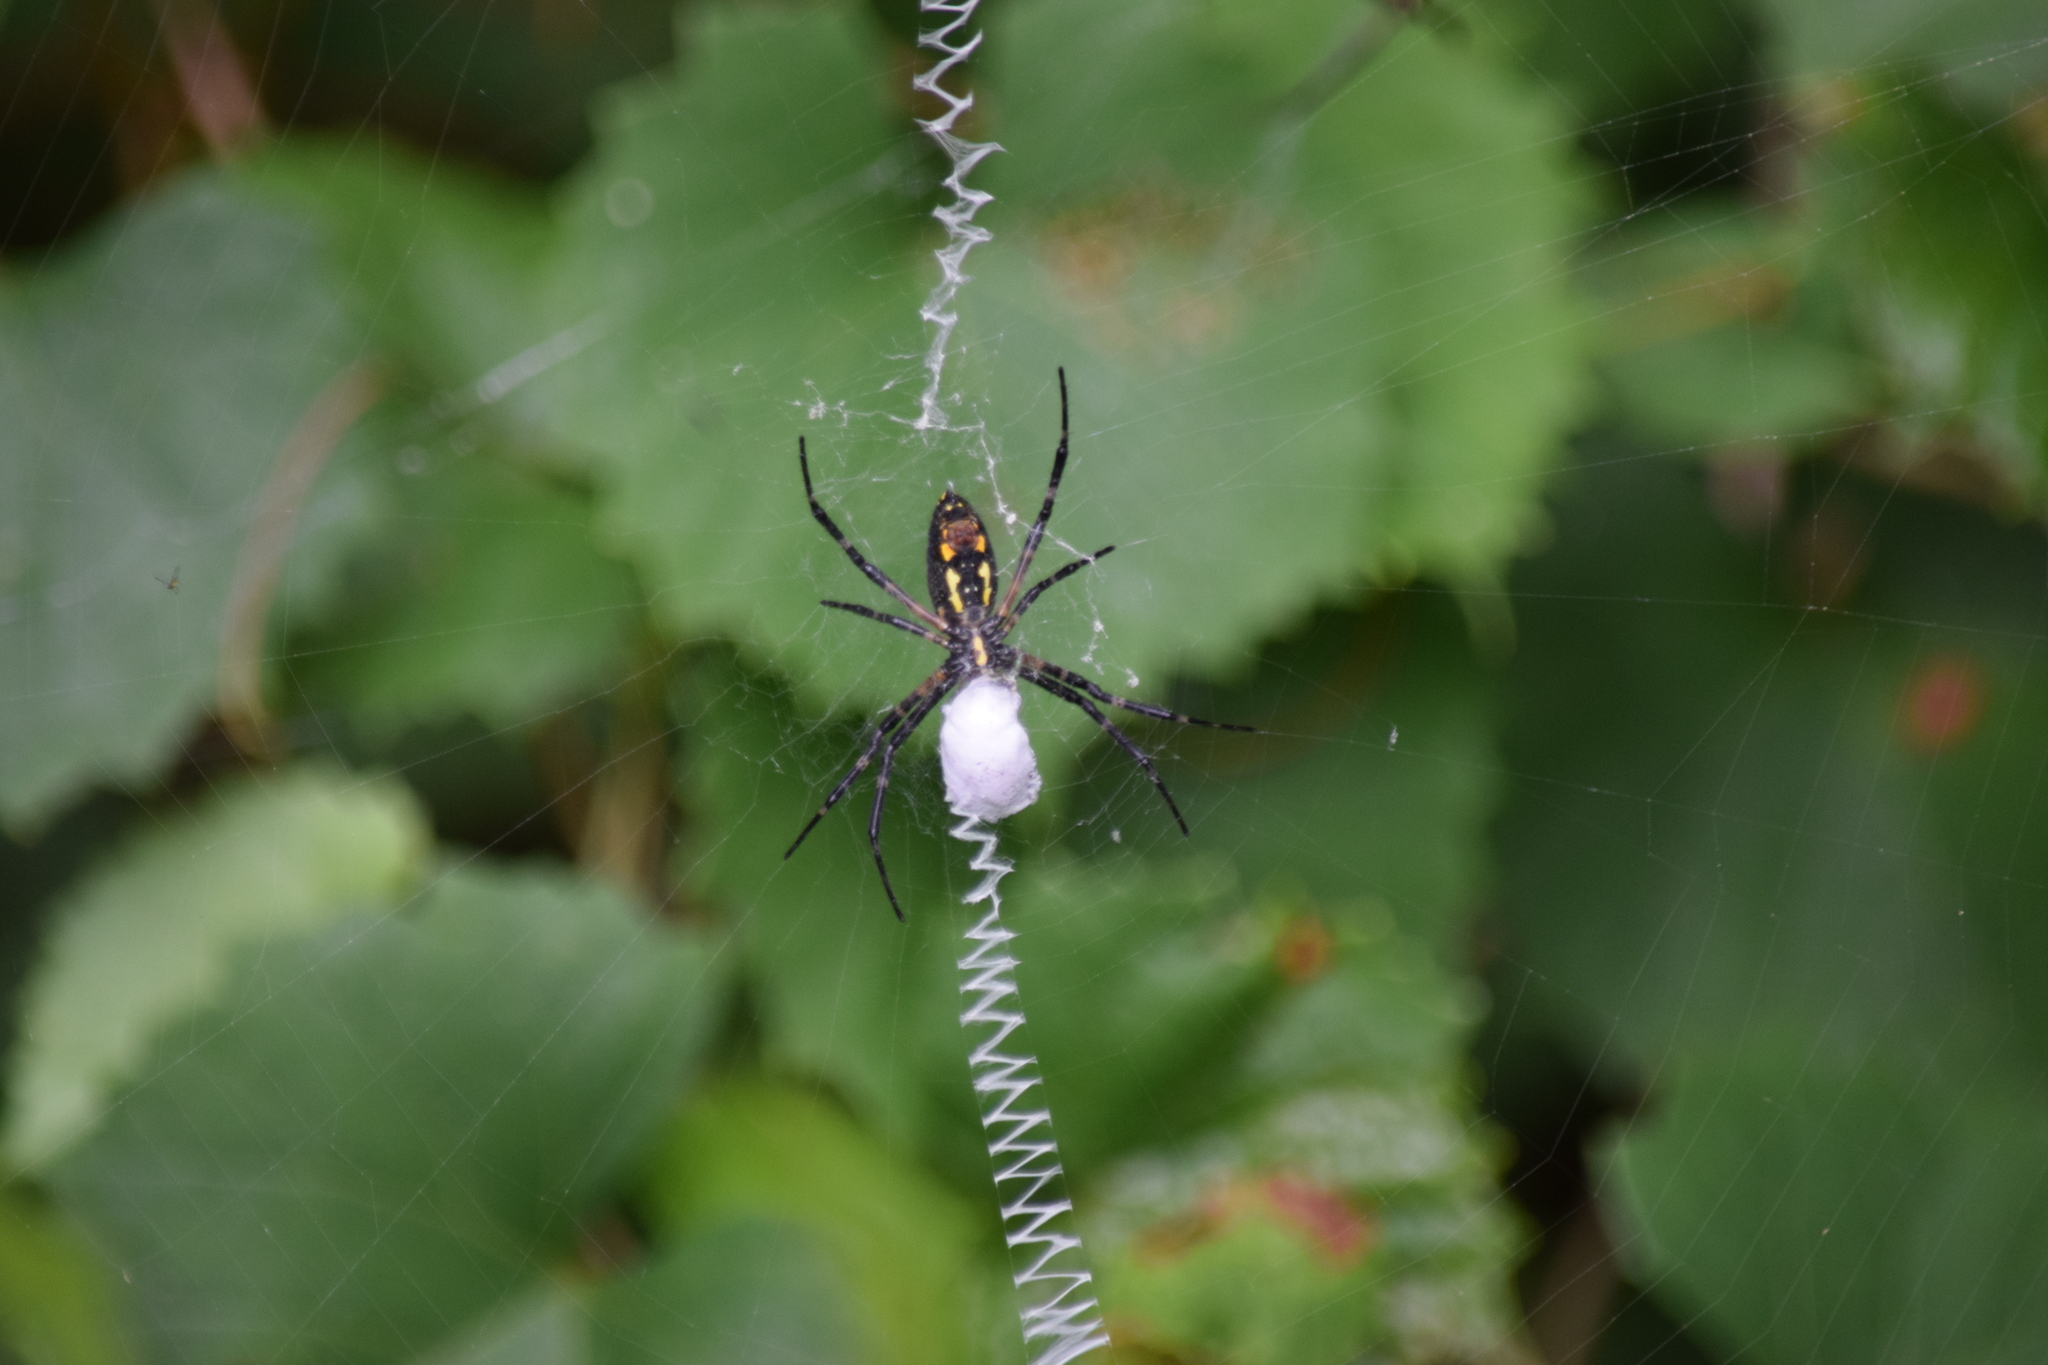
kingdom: Animalia
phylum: Arthropoda
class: Arachnida
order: Araneae
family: Araneidae
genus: Argiope
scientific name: Argiope aurantia
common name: Orb weavers
